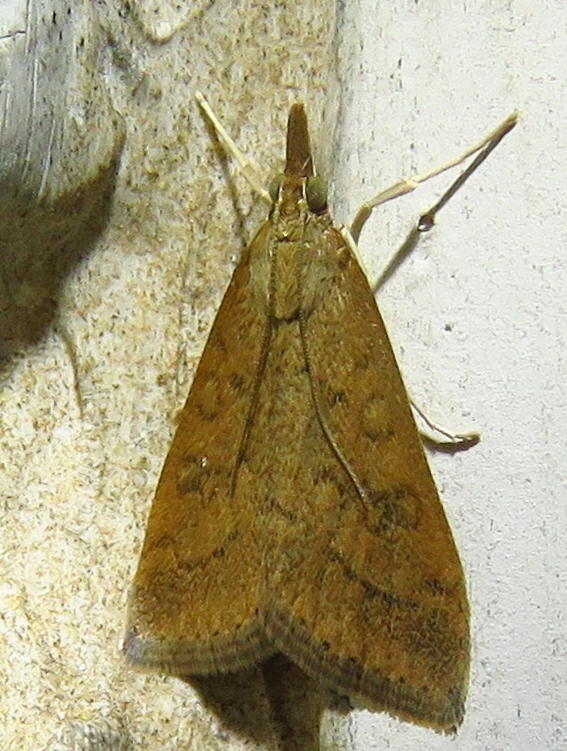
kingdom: Animalia
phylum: Arthropoda
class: Insecta
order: Lepidoptera
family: Crambidae
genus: Udea
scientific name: Udea rubigalis
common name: Celery leaftier moth
